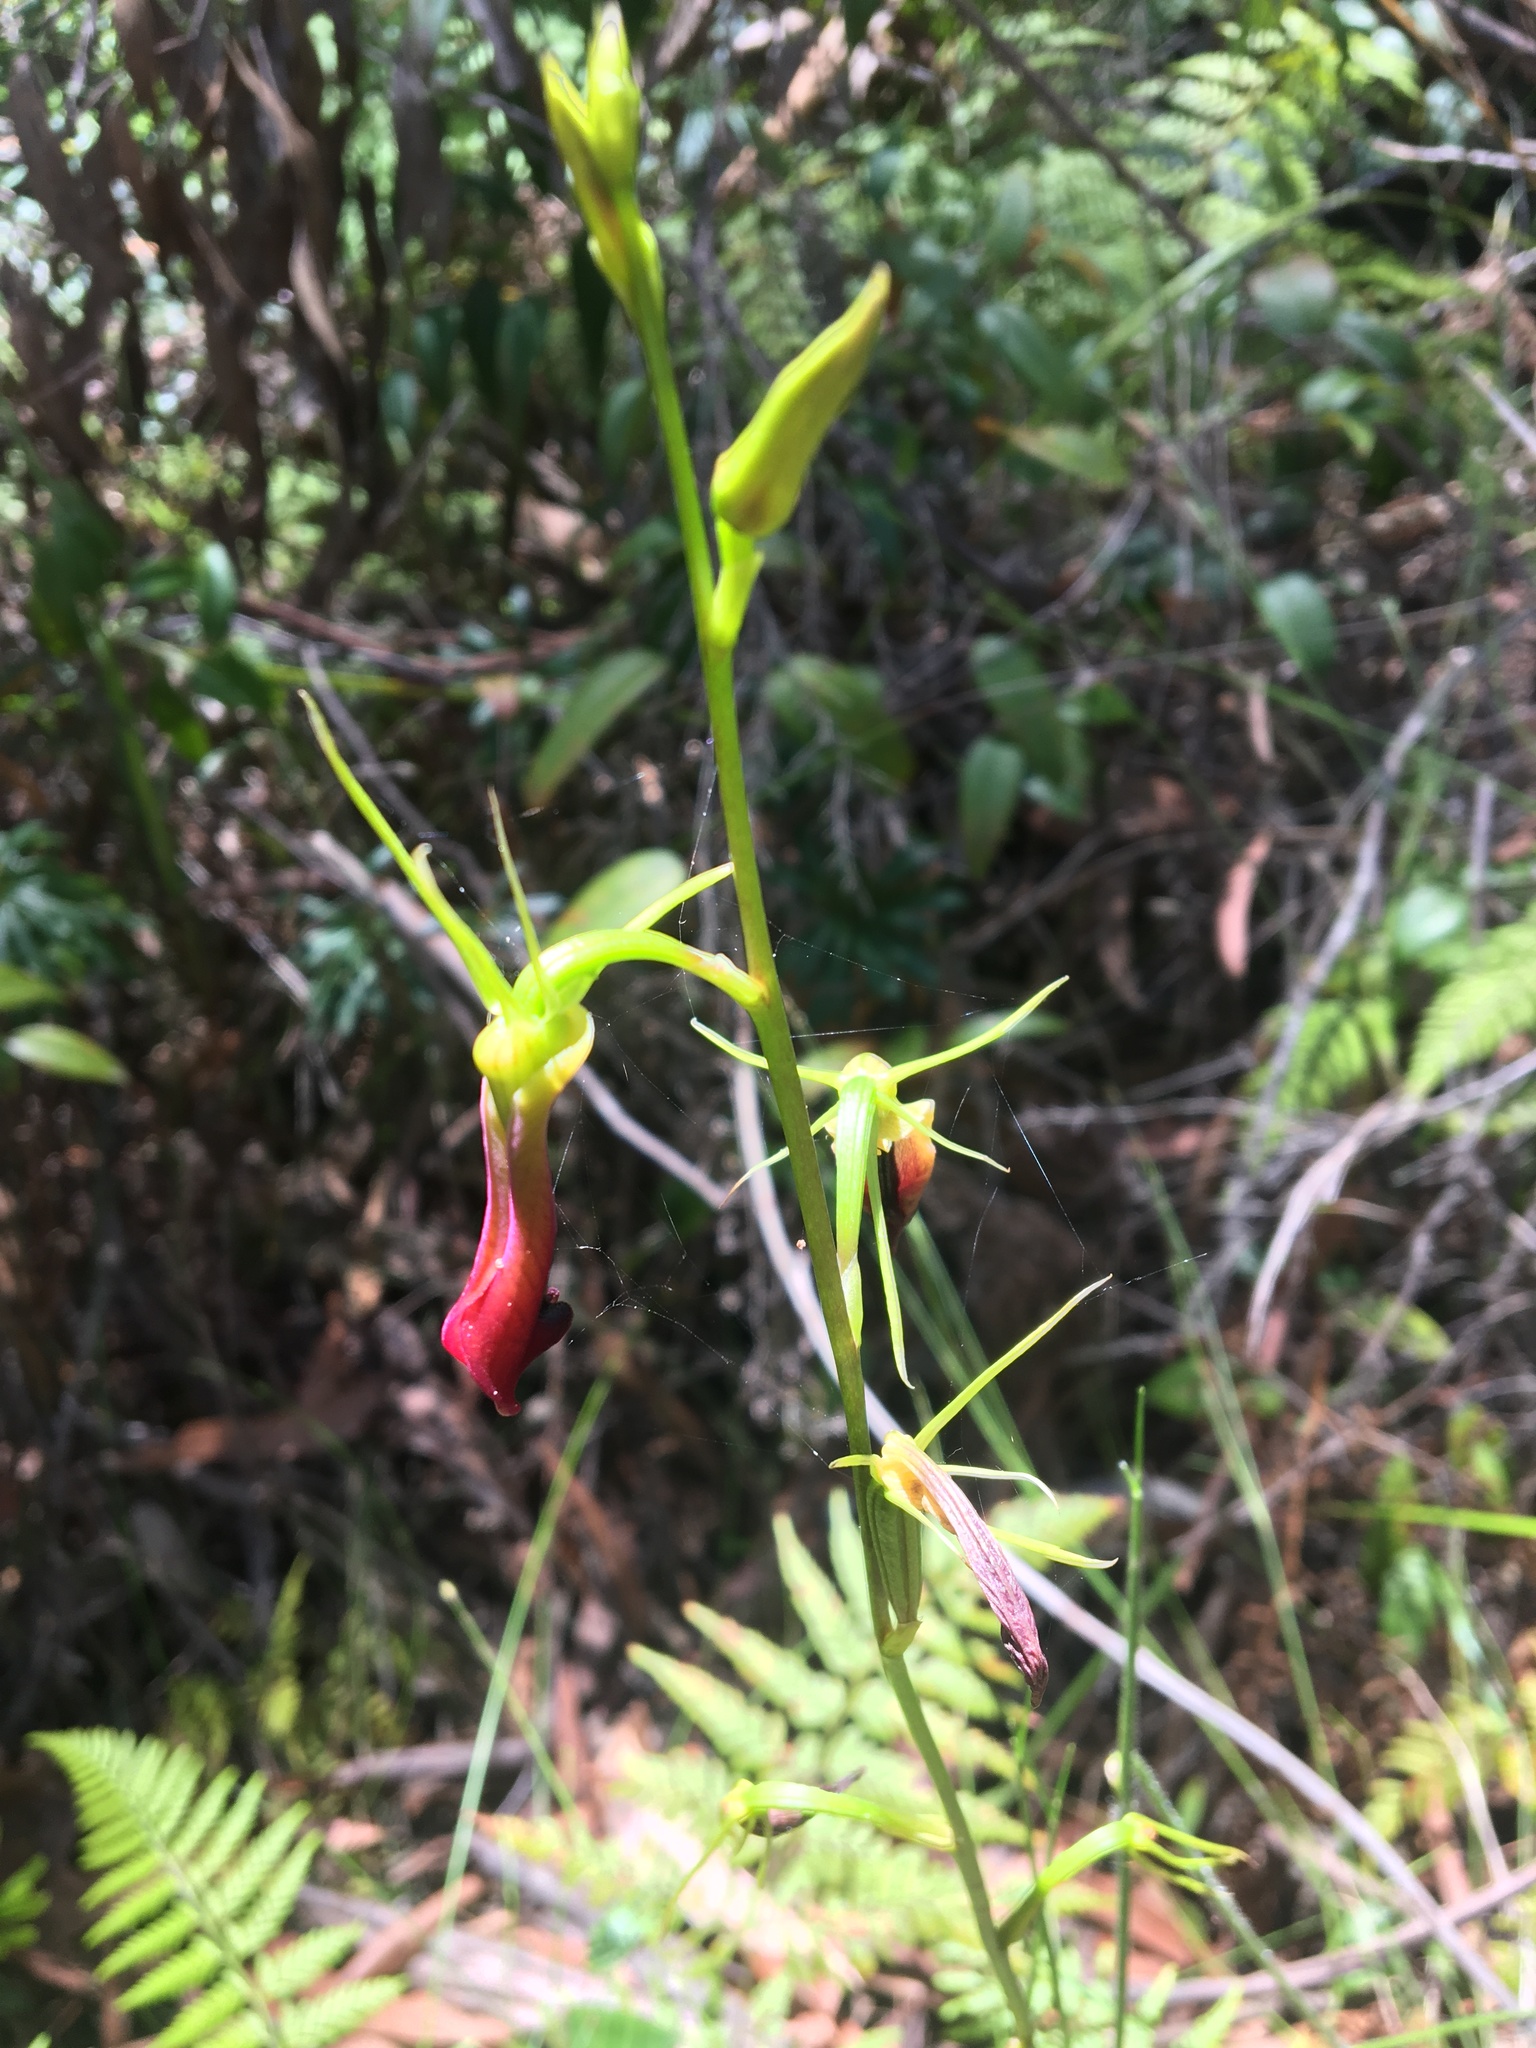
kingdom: Plantae
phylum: Tracheophyta
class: Liliopsida
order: Asparagales
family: Orchidaceae
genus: Cryptostylis
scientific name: Cryptostylis subulata
